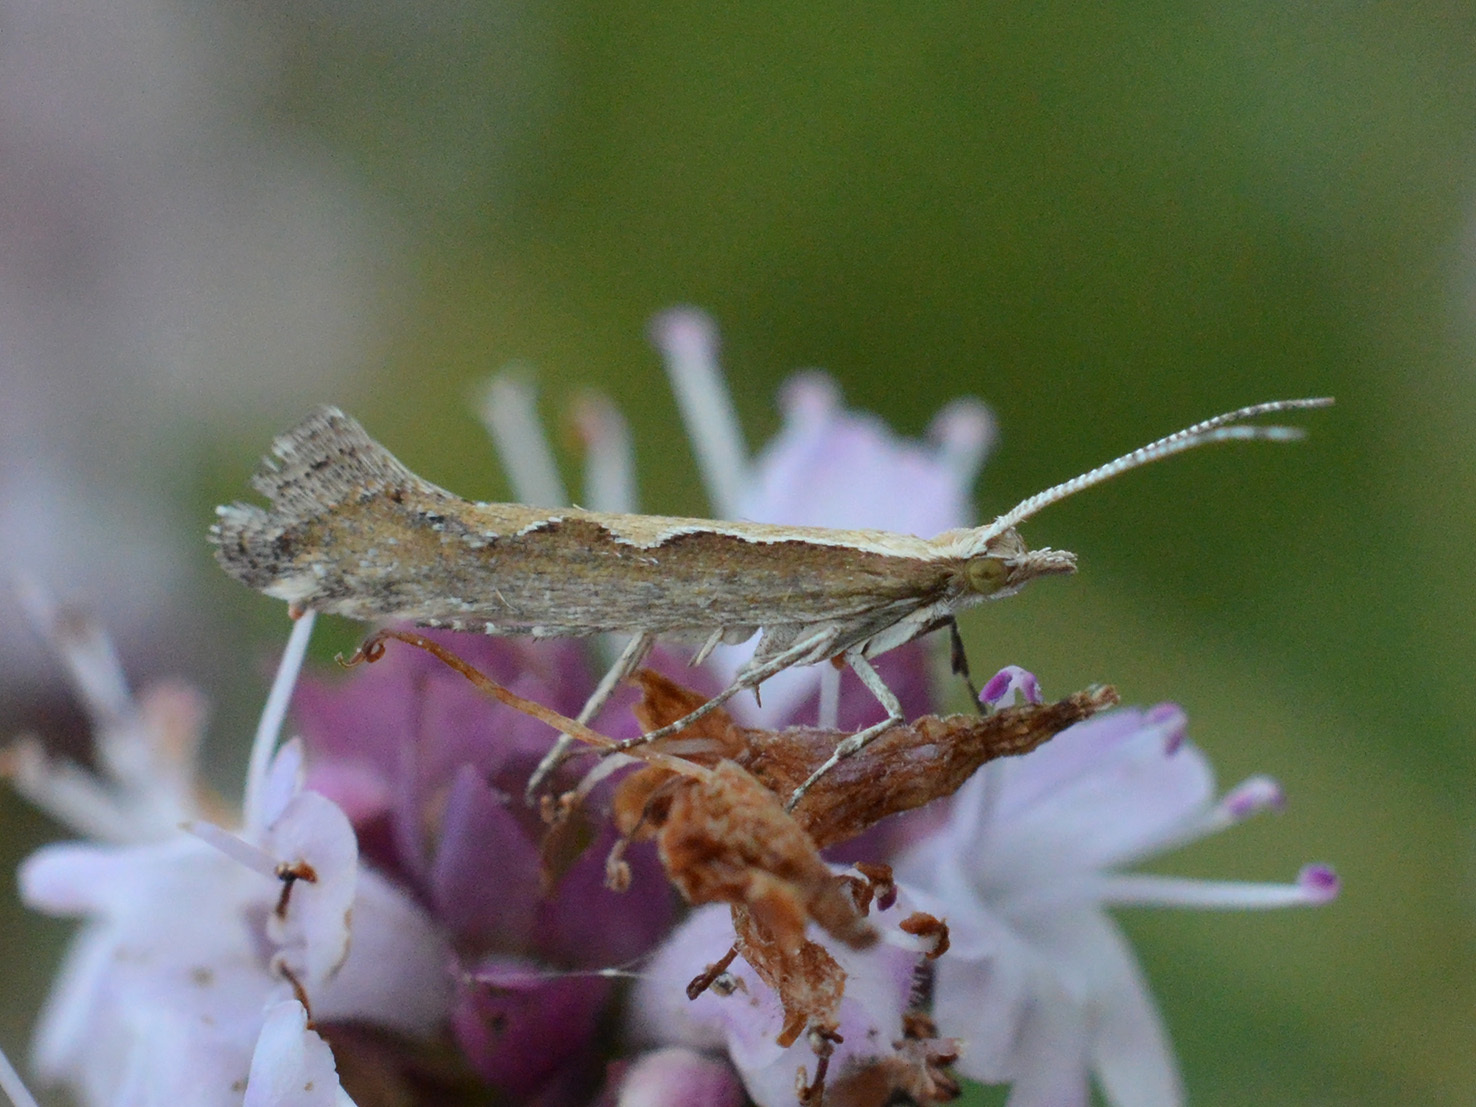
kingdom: Animalia
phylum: Arthropoda
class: Insecta
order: Lepidoptera
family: Plutellidae
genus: Plutella
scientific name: Plutella xylostella
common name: Diamond-back moth
